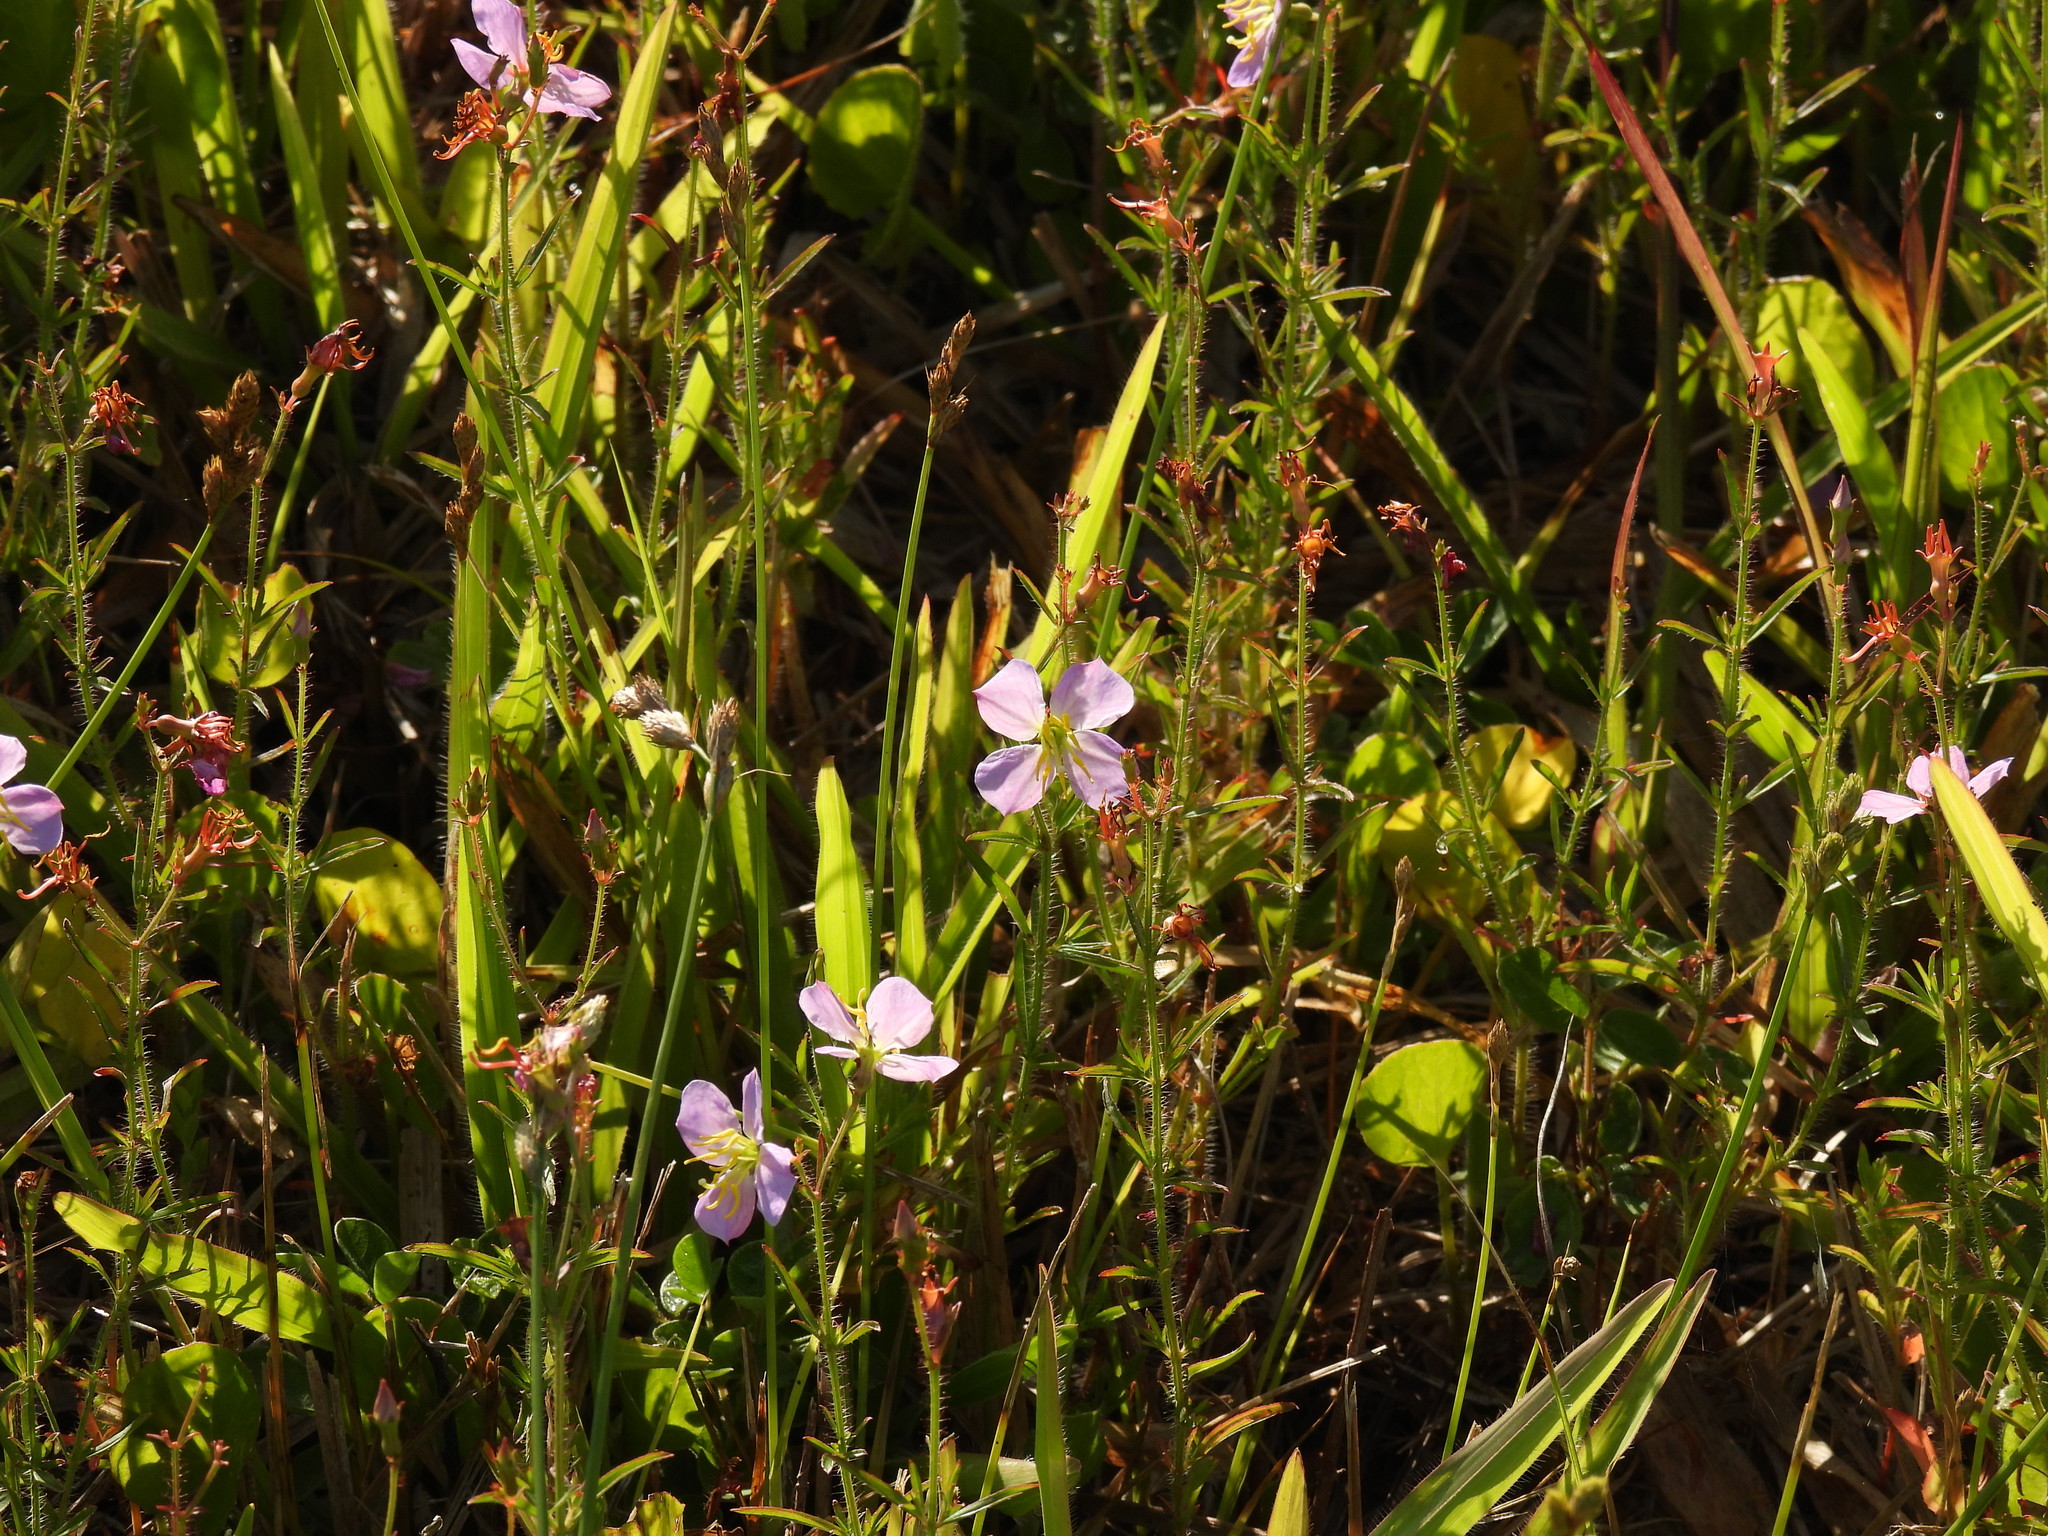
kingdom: Plantae
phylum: Tracheophyta
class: Magnoliopsida
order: Myrtales
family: Melastomataceae
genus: Rhexia
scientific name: Rhexia mariana
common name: Dull meadow-pitcher
